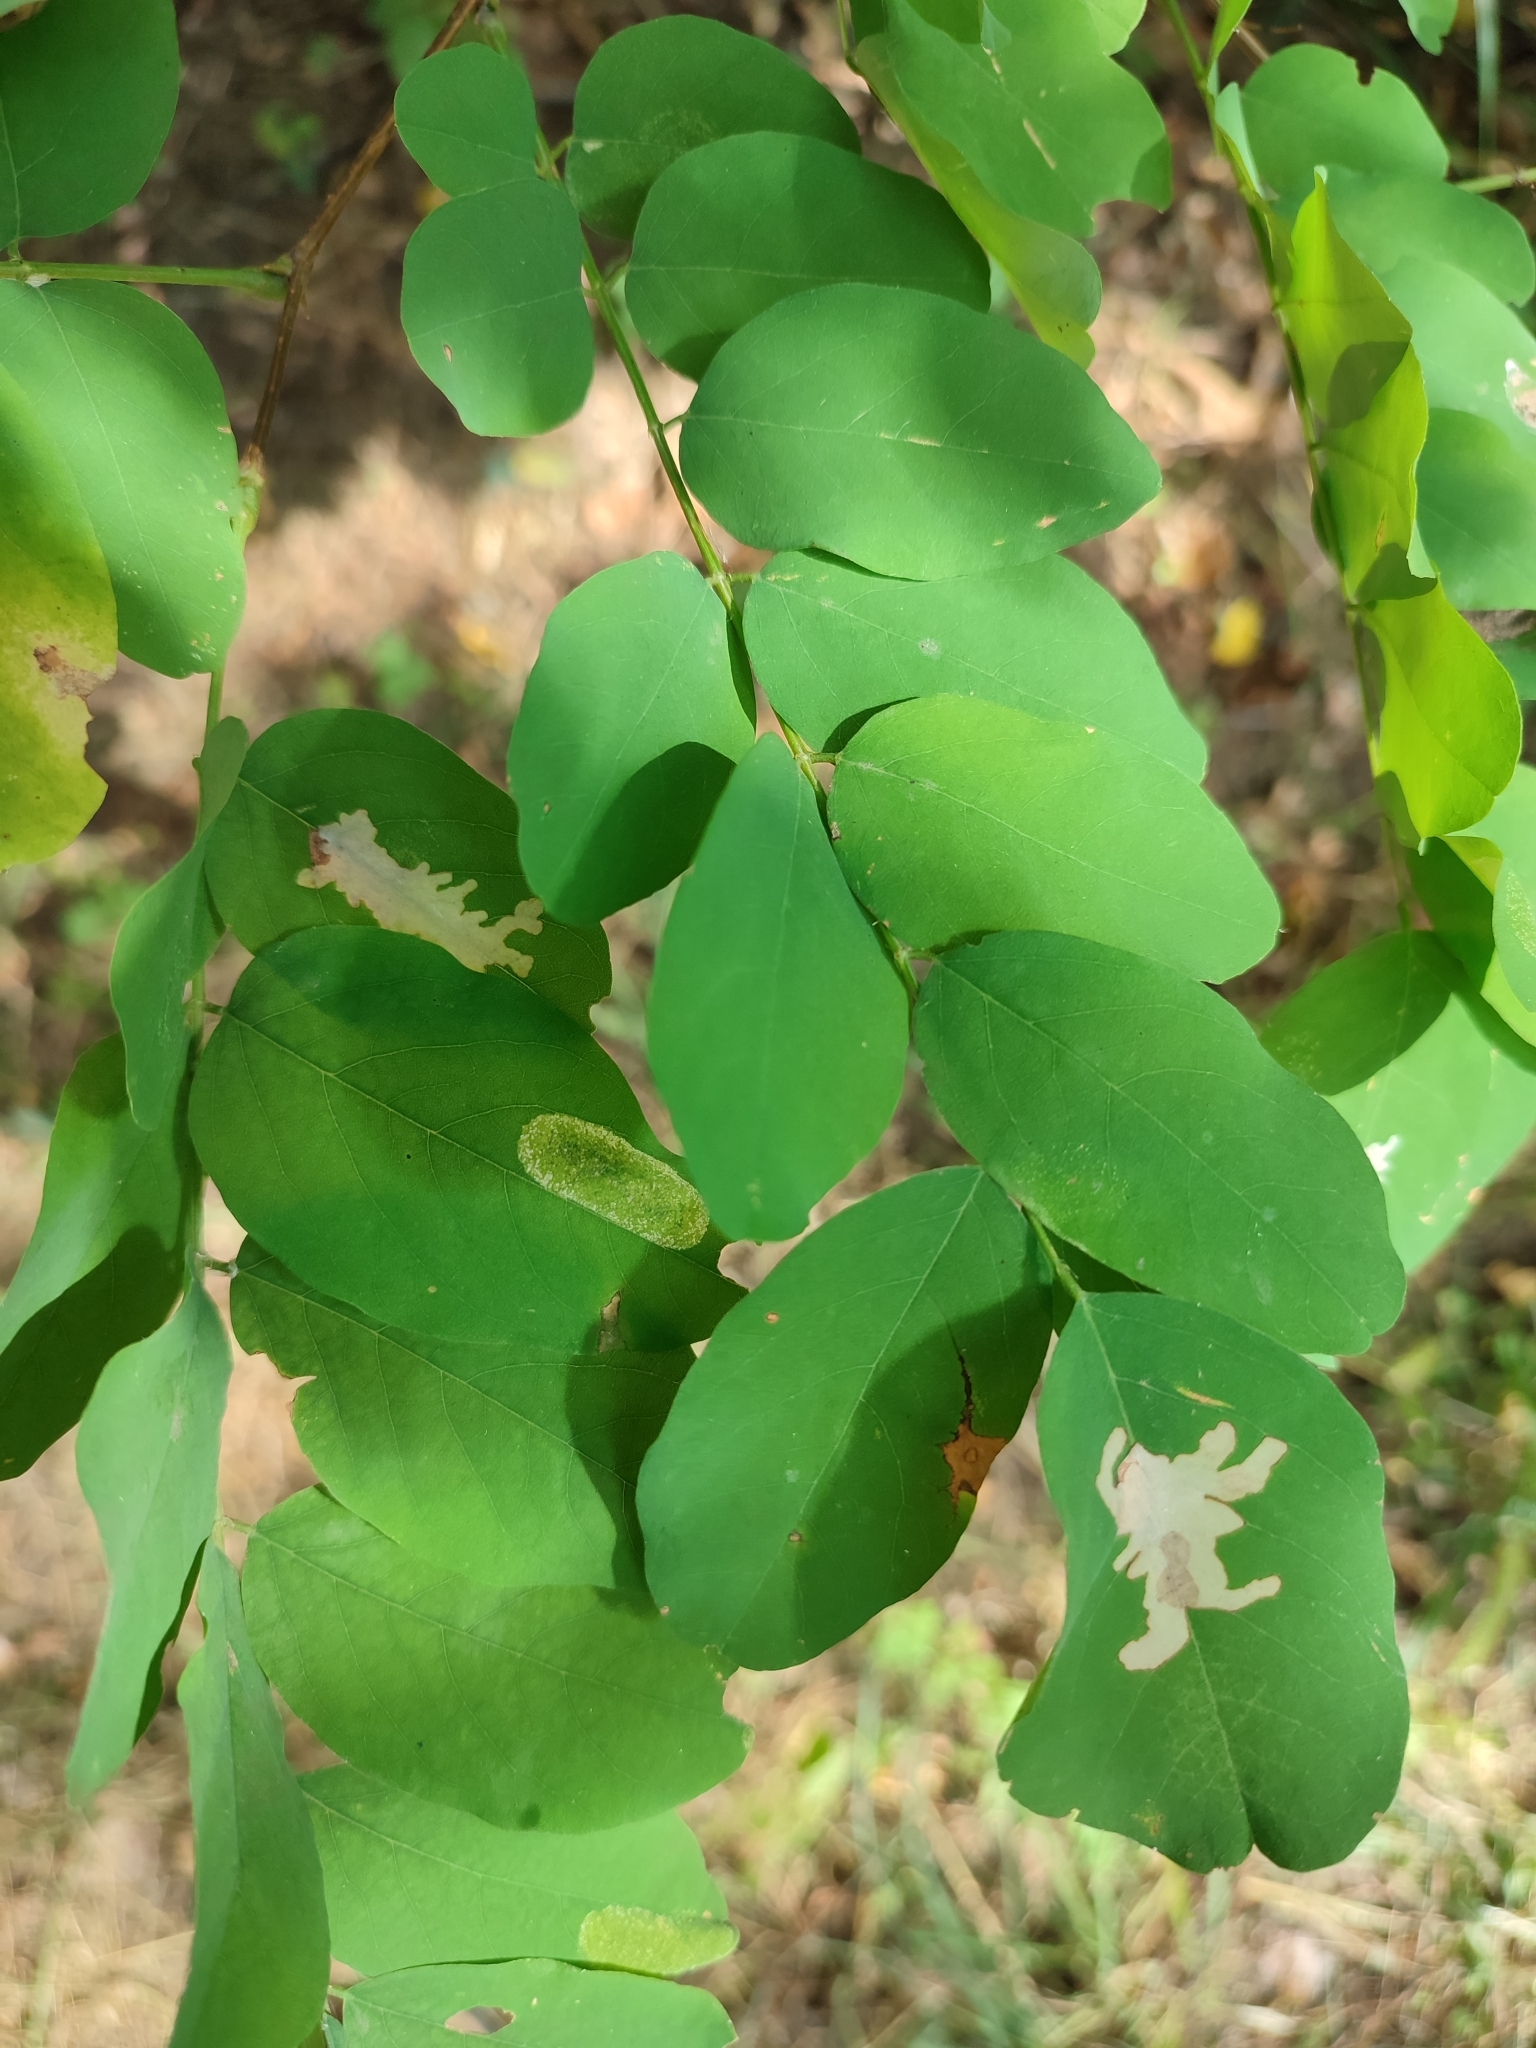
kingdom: Animalia
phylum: Arthropoda
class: Insecta
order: Lepidoptera
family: Gracillariidae
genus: Macrosaccus
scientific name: Macrosaccus robiniella
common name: Leaf blotch miner moth
